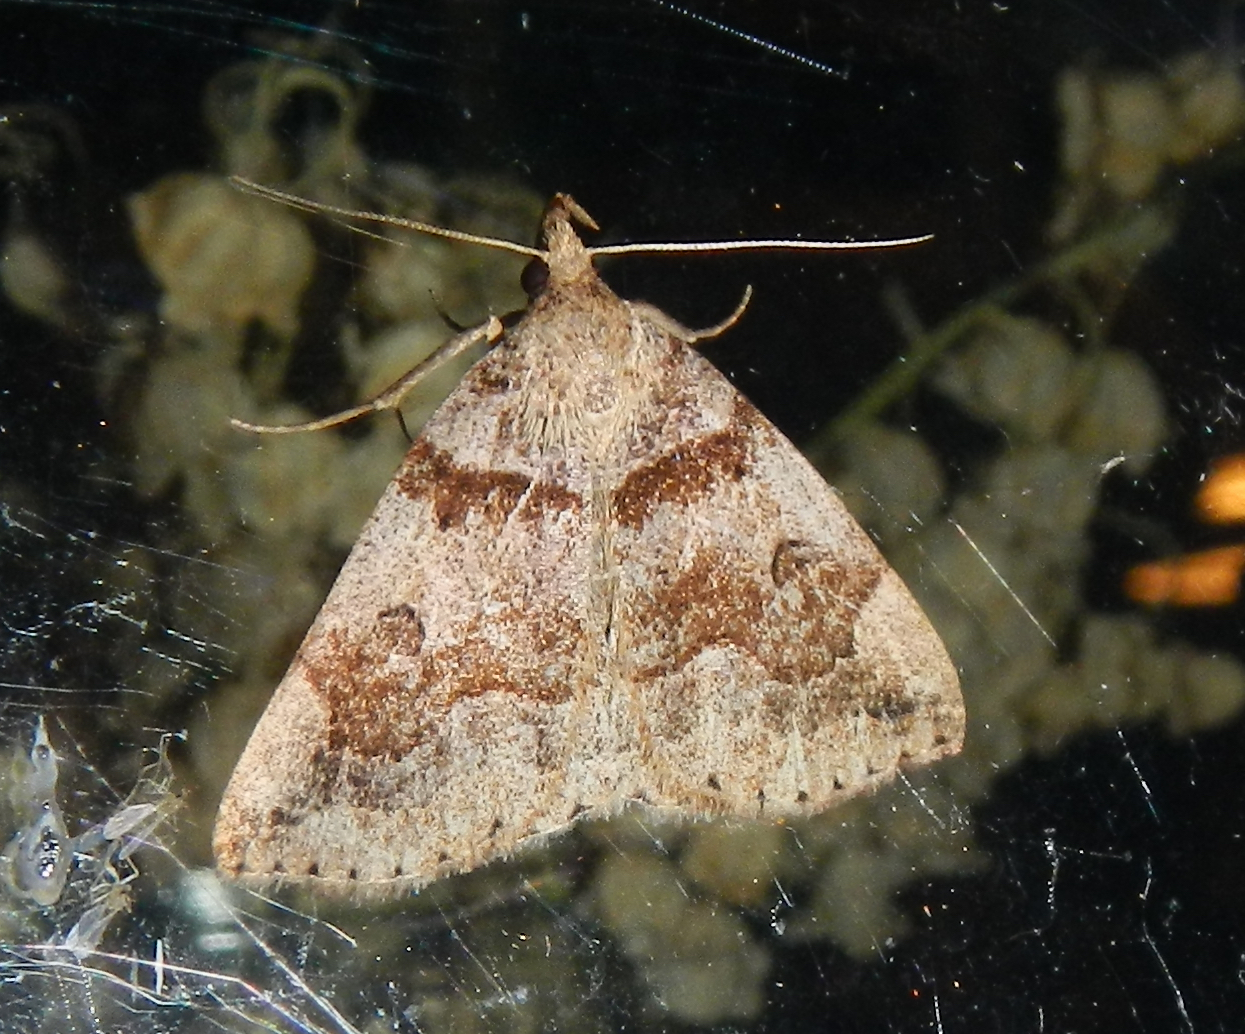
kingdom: Animalia
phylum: Arthropoda
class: Insecta
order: Lepidoptera
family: Erebidae
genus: Zanclognatha
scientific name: Zanclognatha laevigata
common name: Variable fan-foot
